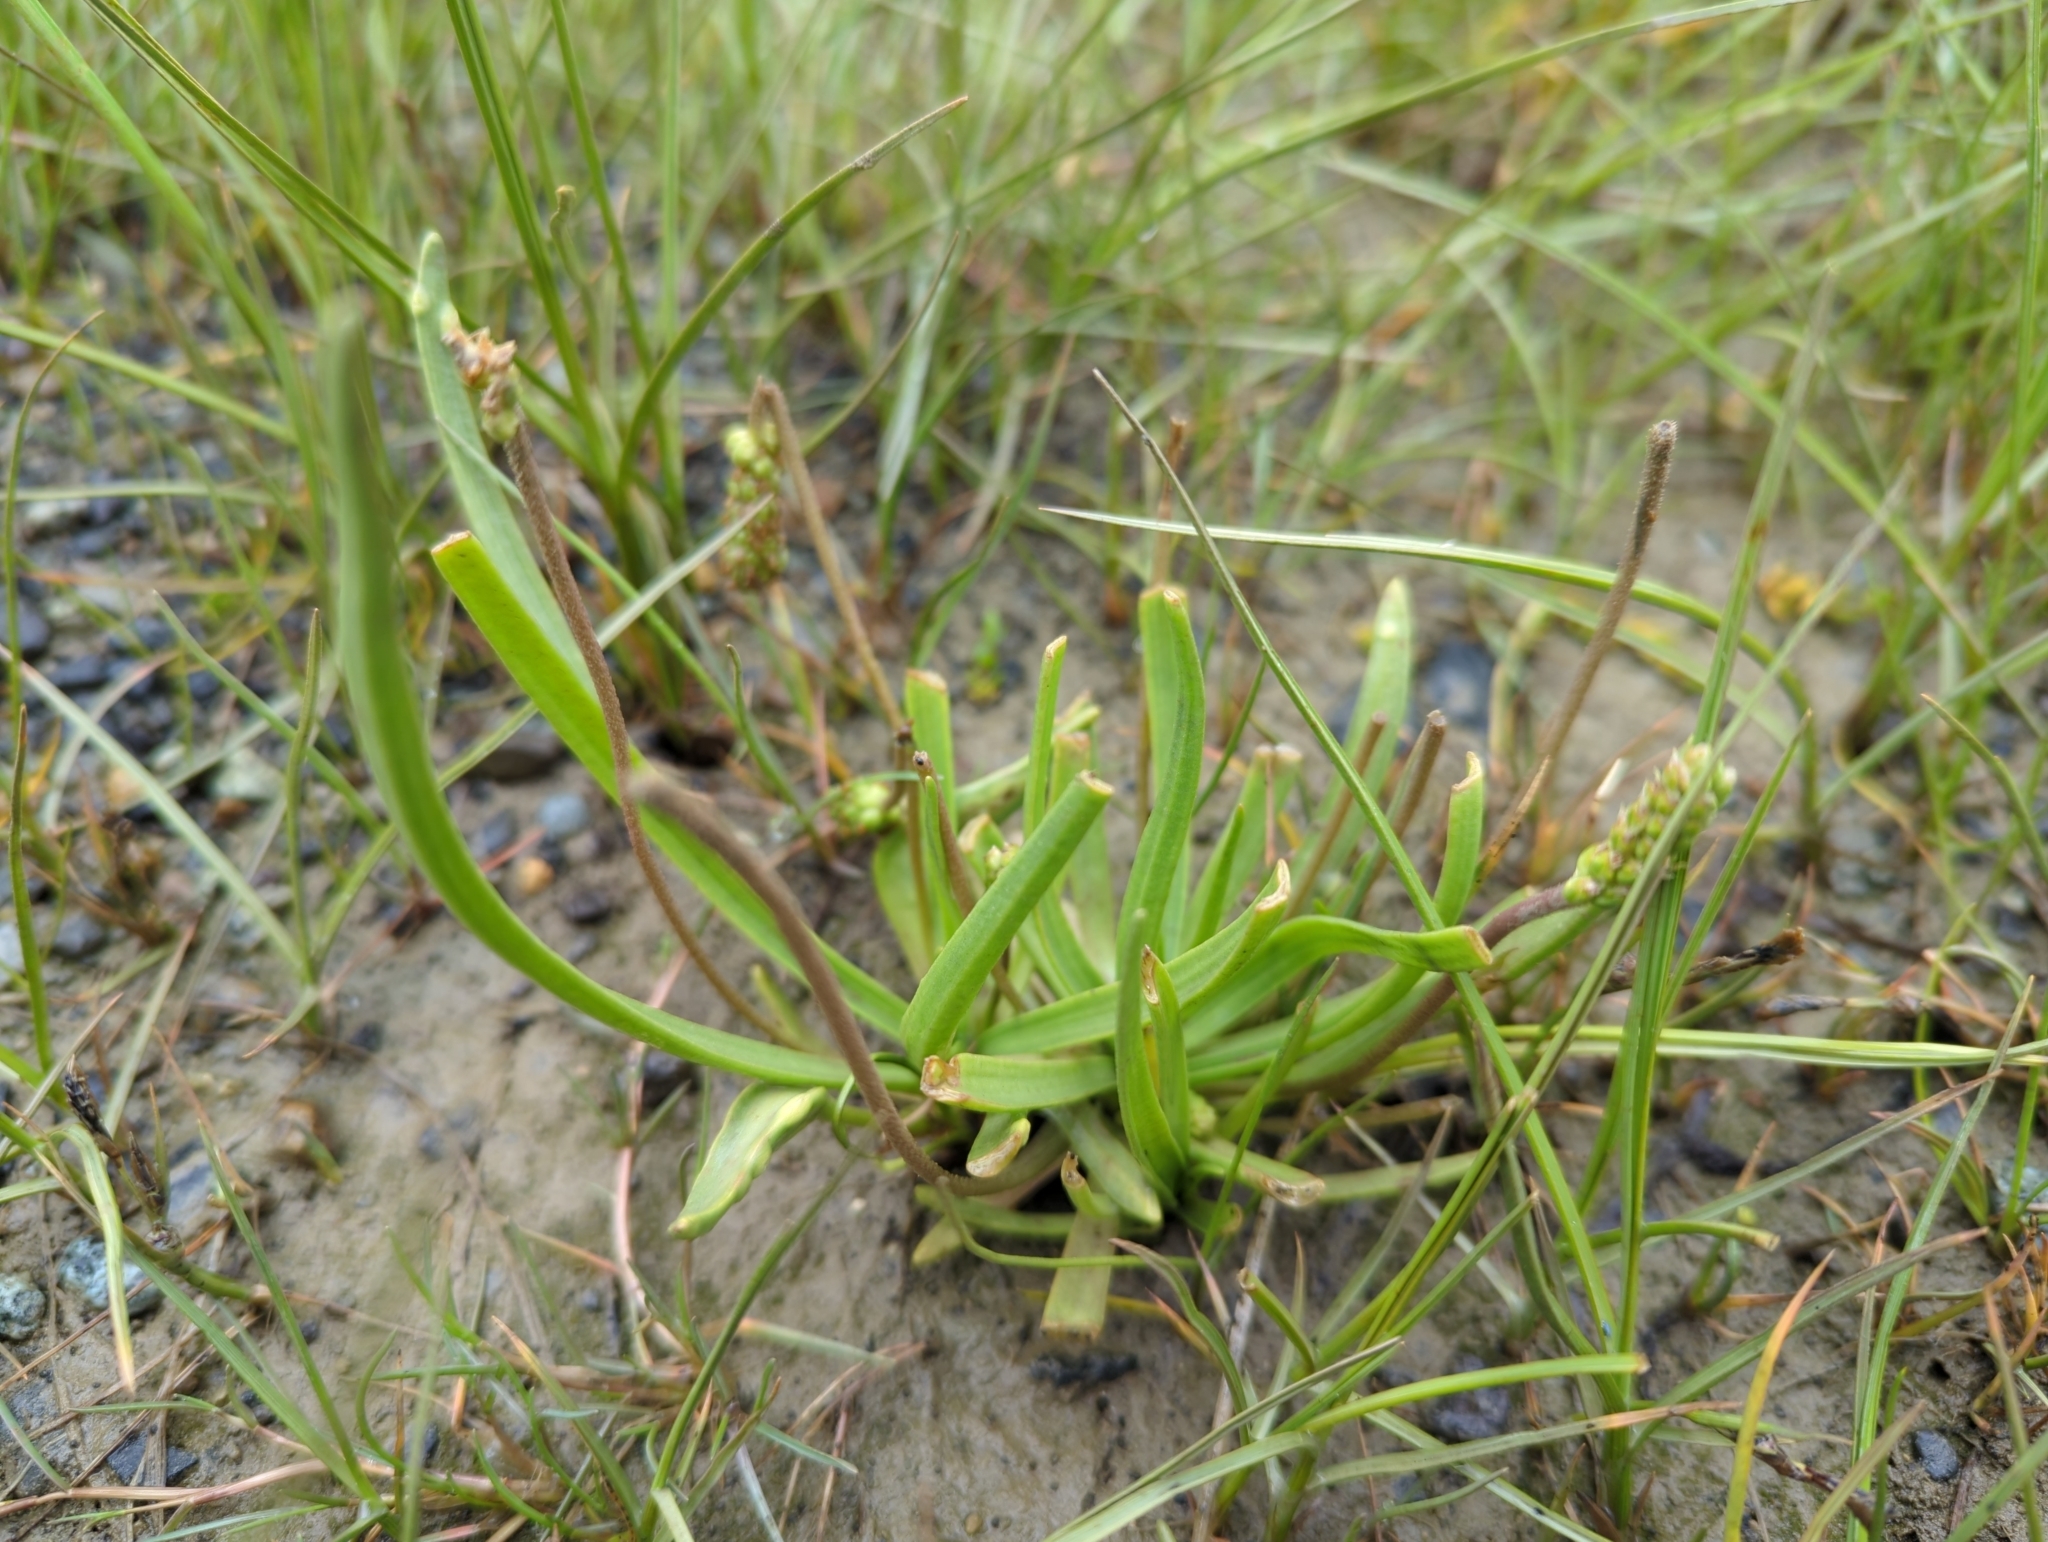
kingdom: Plantae
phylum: Tracheophyta
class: Magnoliopsida
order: Lamiales
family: Plantaginaceae
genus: Plantago
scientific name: Plantago maritima
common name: Sea plantain
